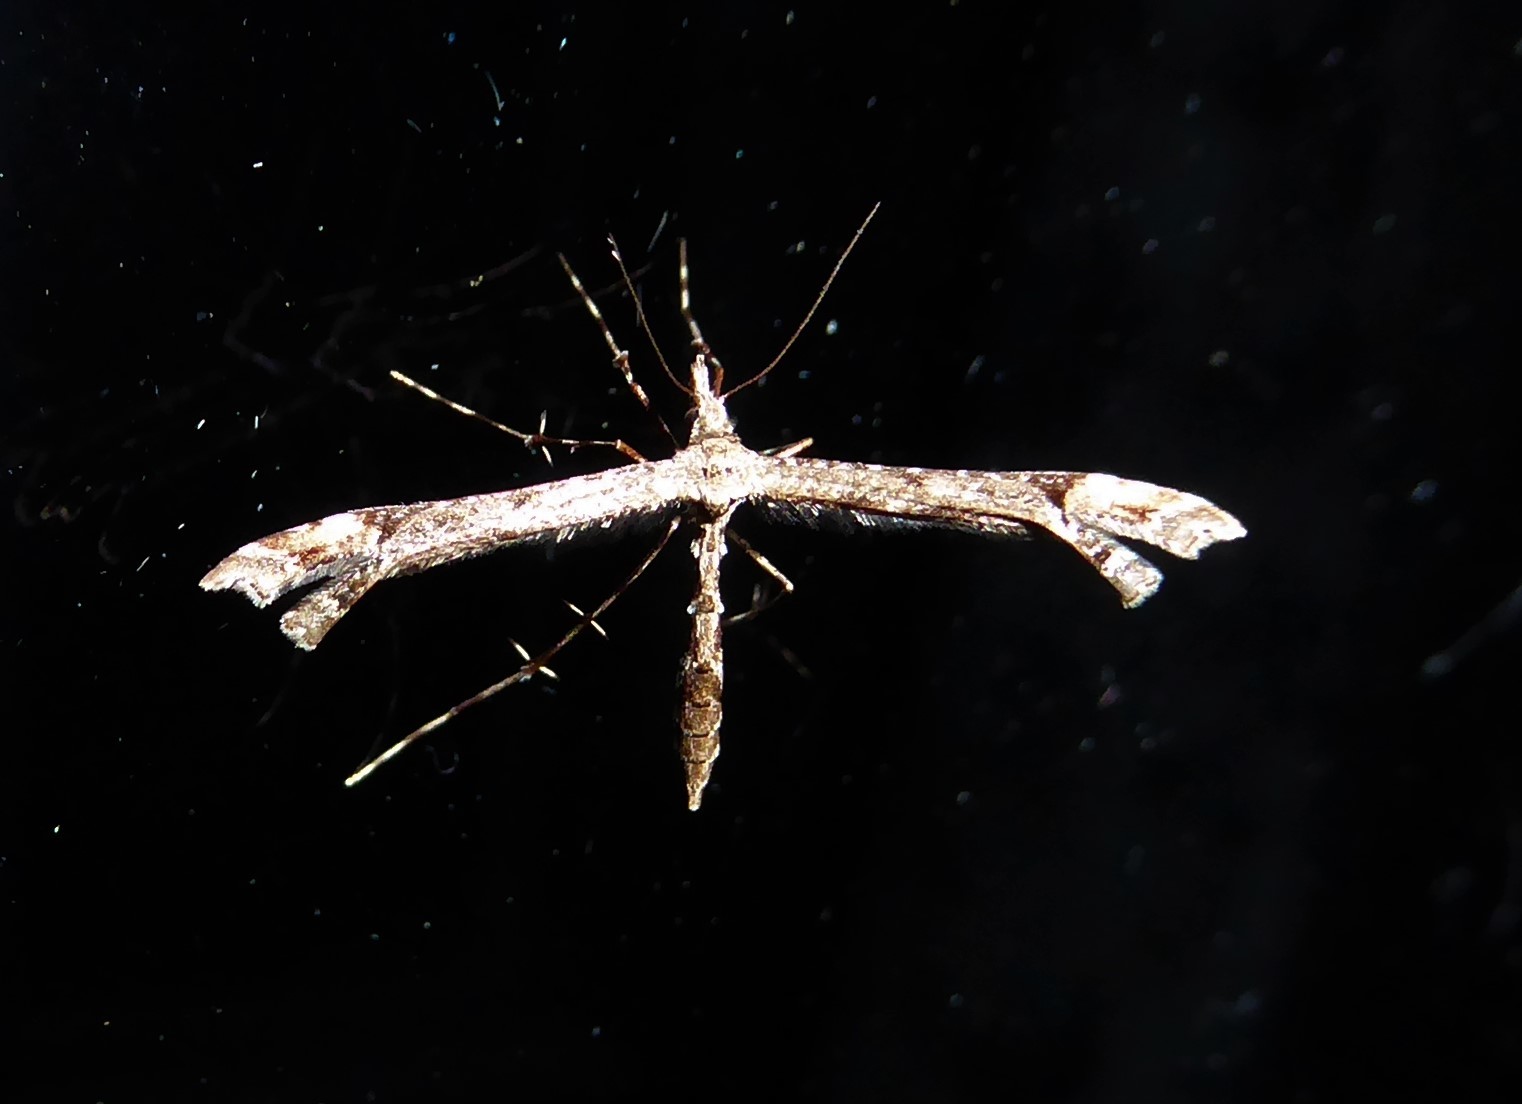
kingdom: Animalia
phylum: Arthropoda
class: Insecta
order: Lepidoptera
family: Pterophoridae
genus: Amblyptilia
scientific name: Amblyptilia repletalis
